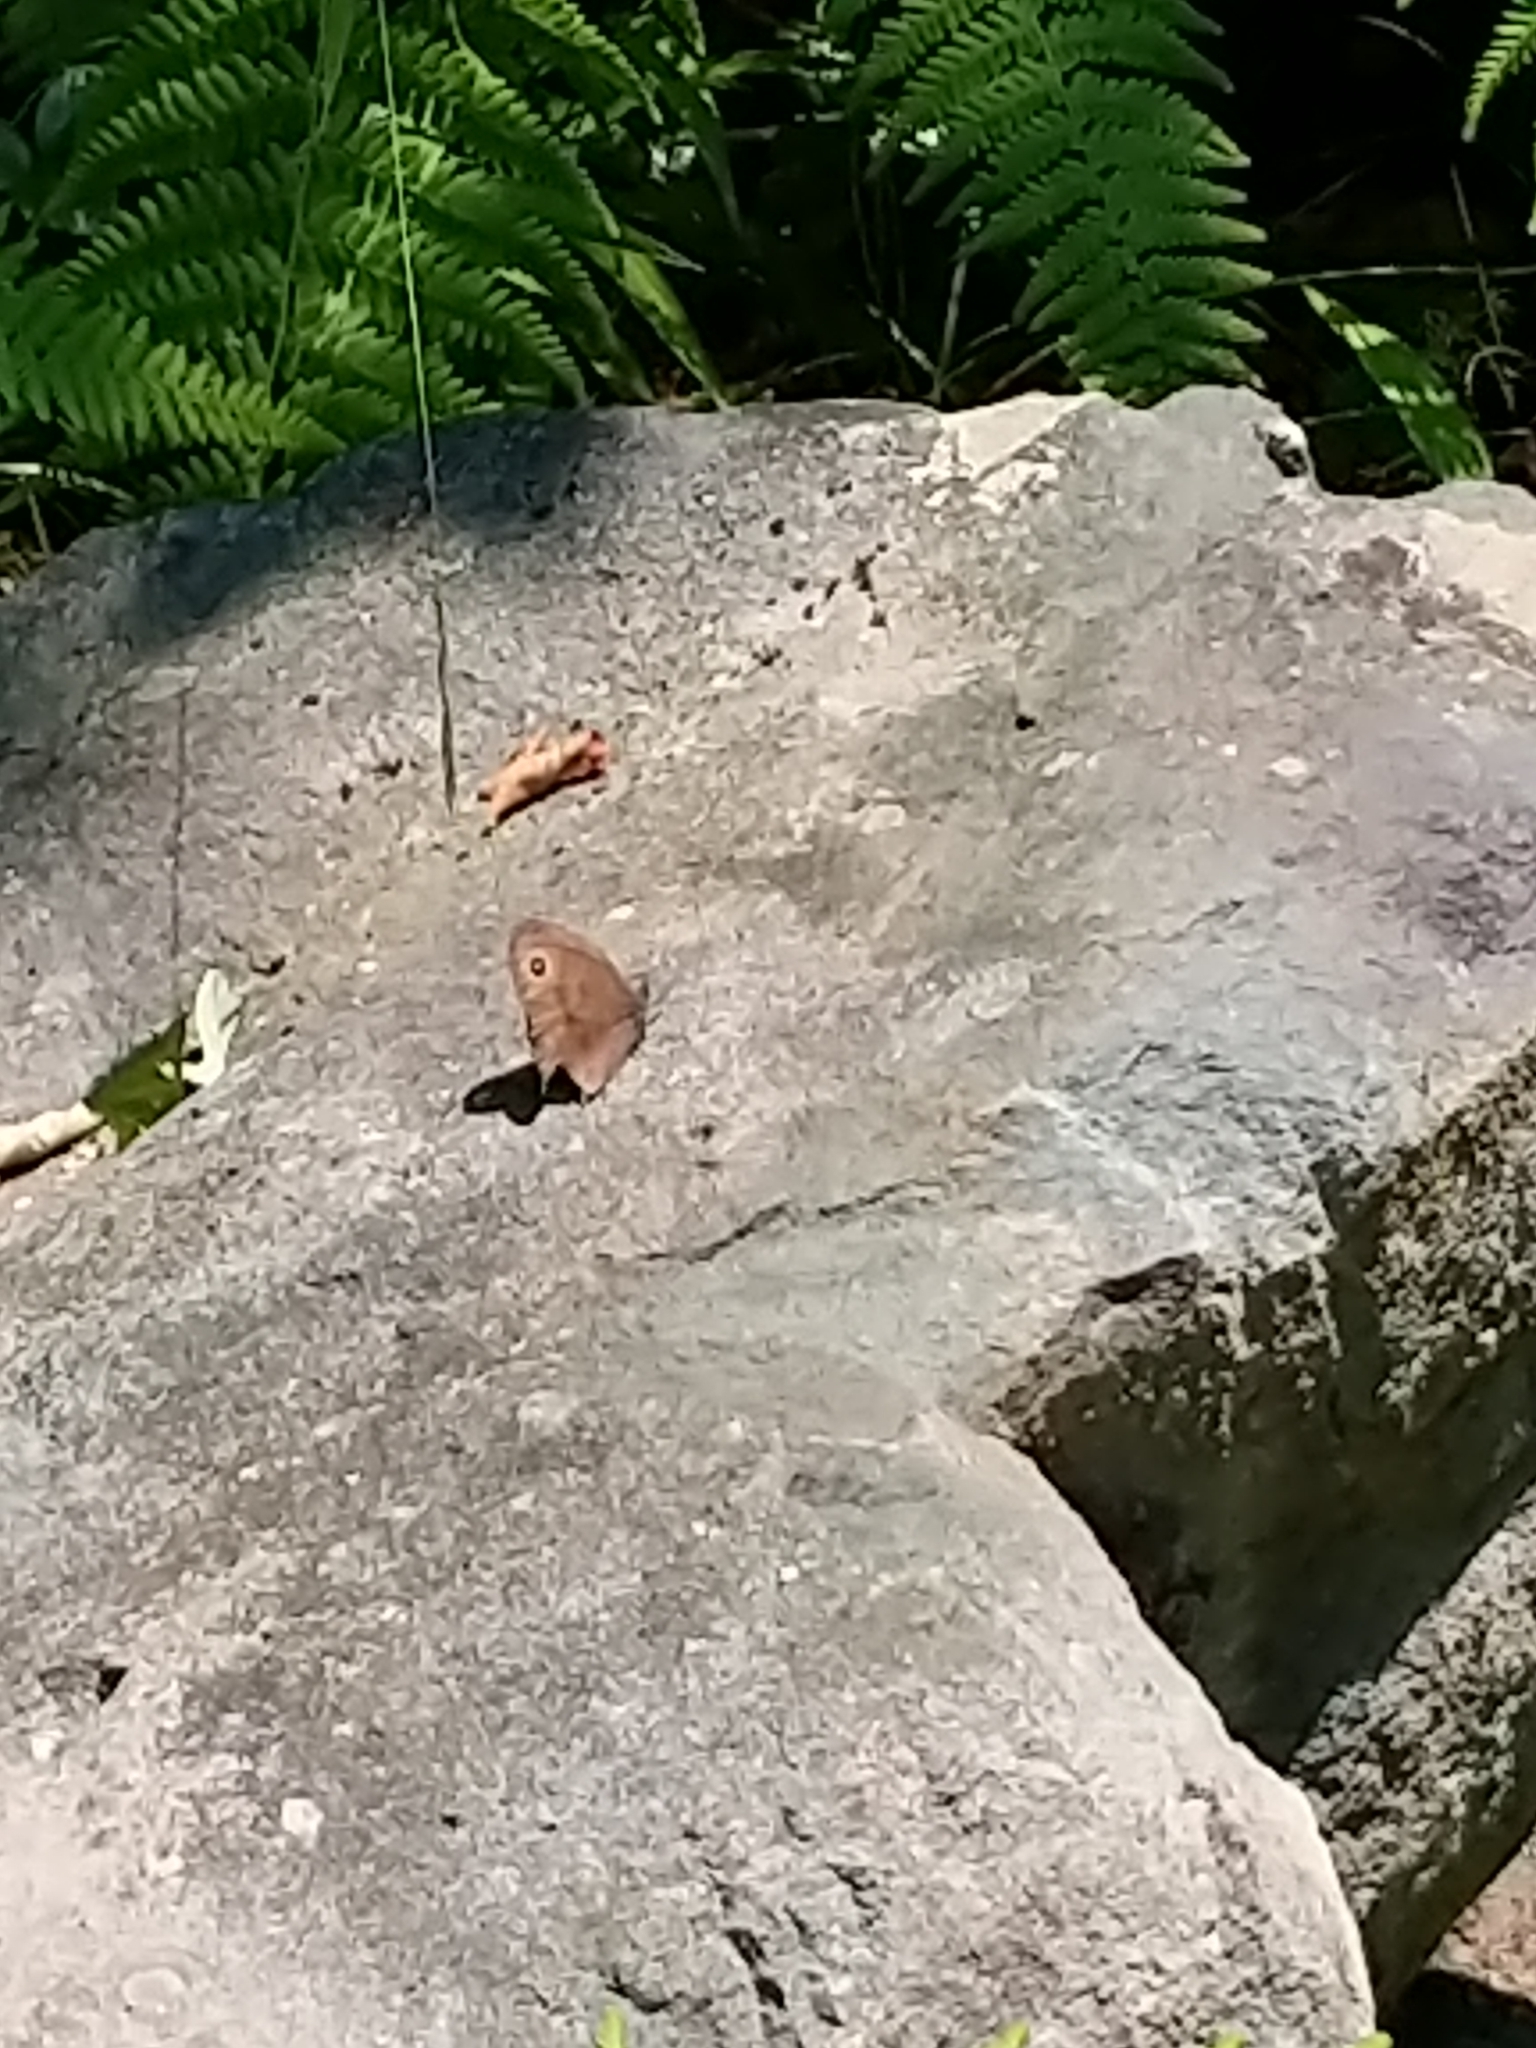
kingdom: Animalia
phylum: Arthropoda
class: Insecta
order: Lepidoptera
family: Nymphalidae
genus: Cercyonis
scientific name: Cercyonis pegala
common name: Common wood-nymph
